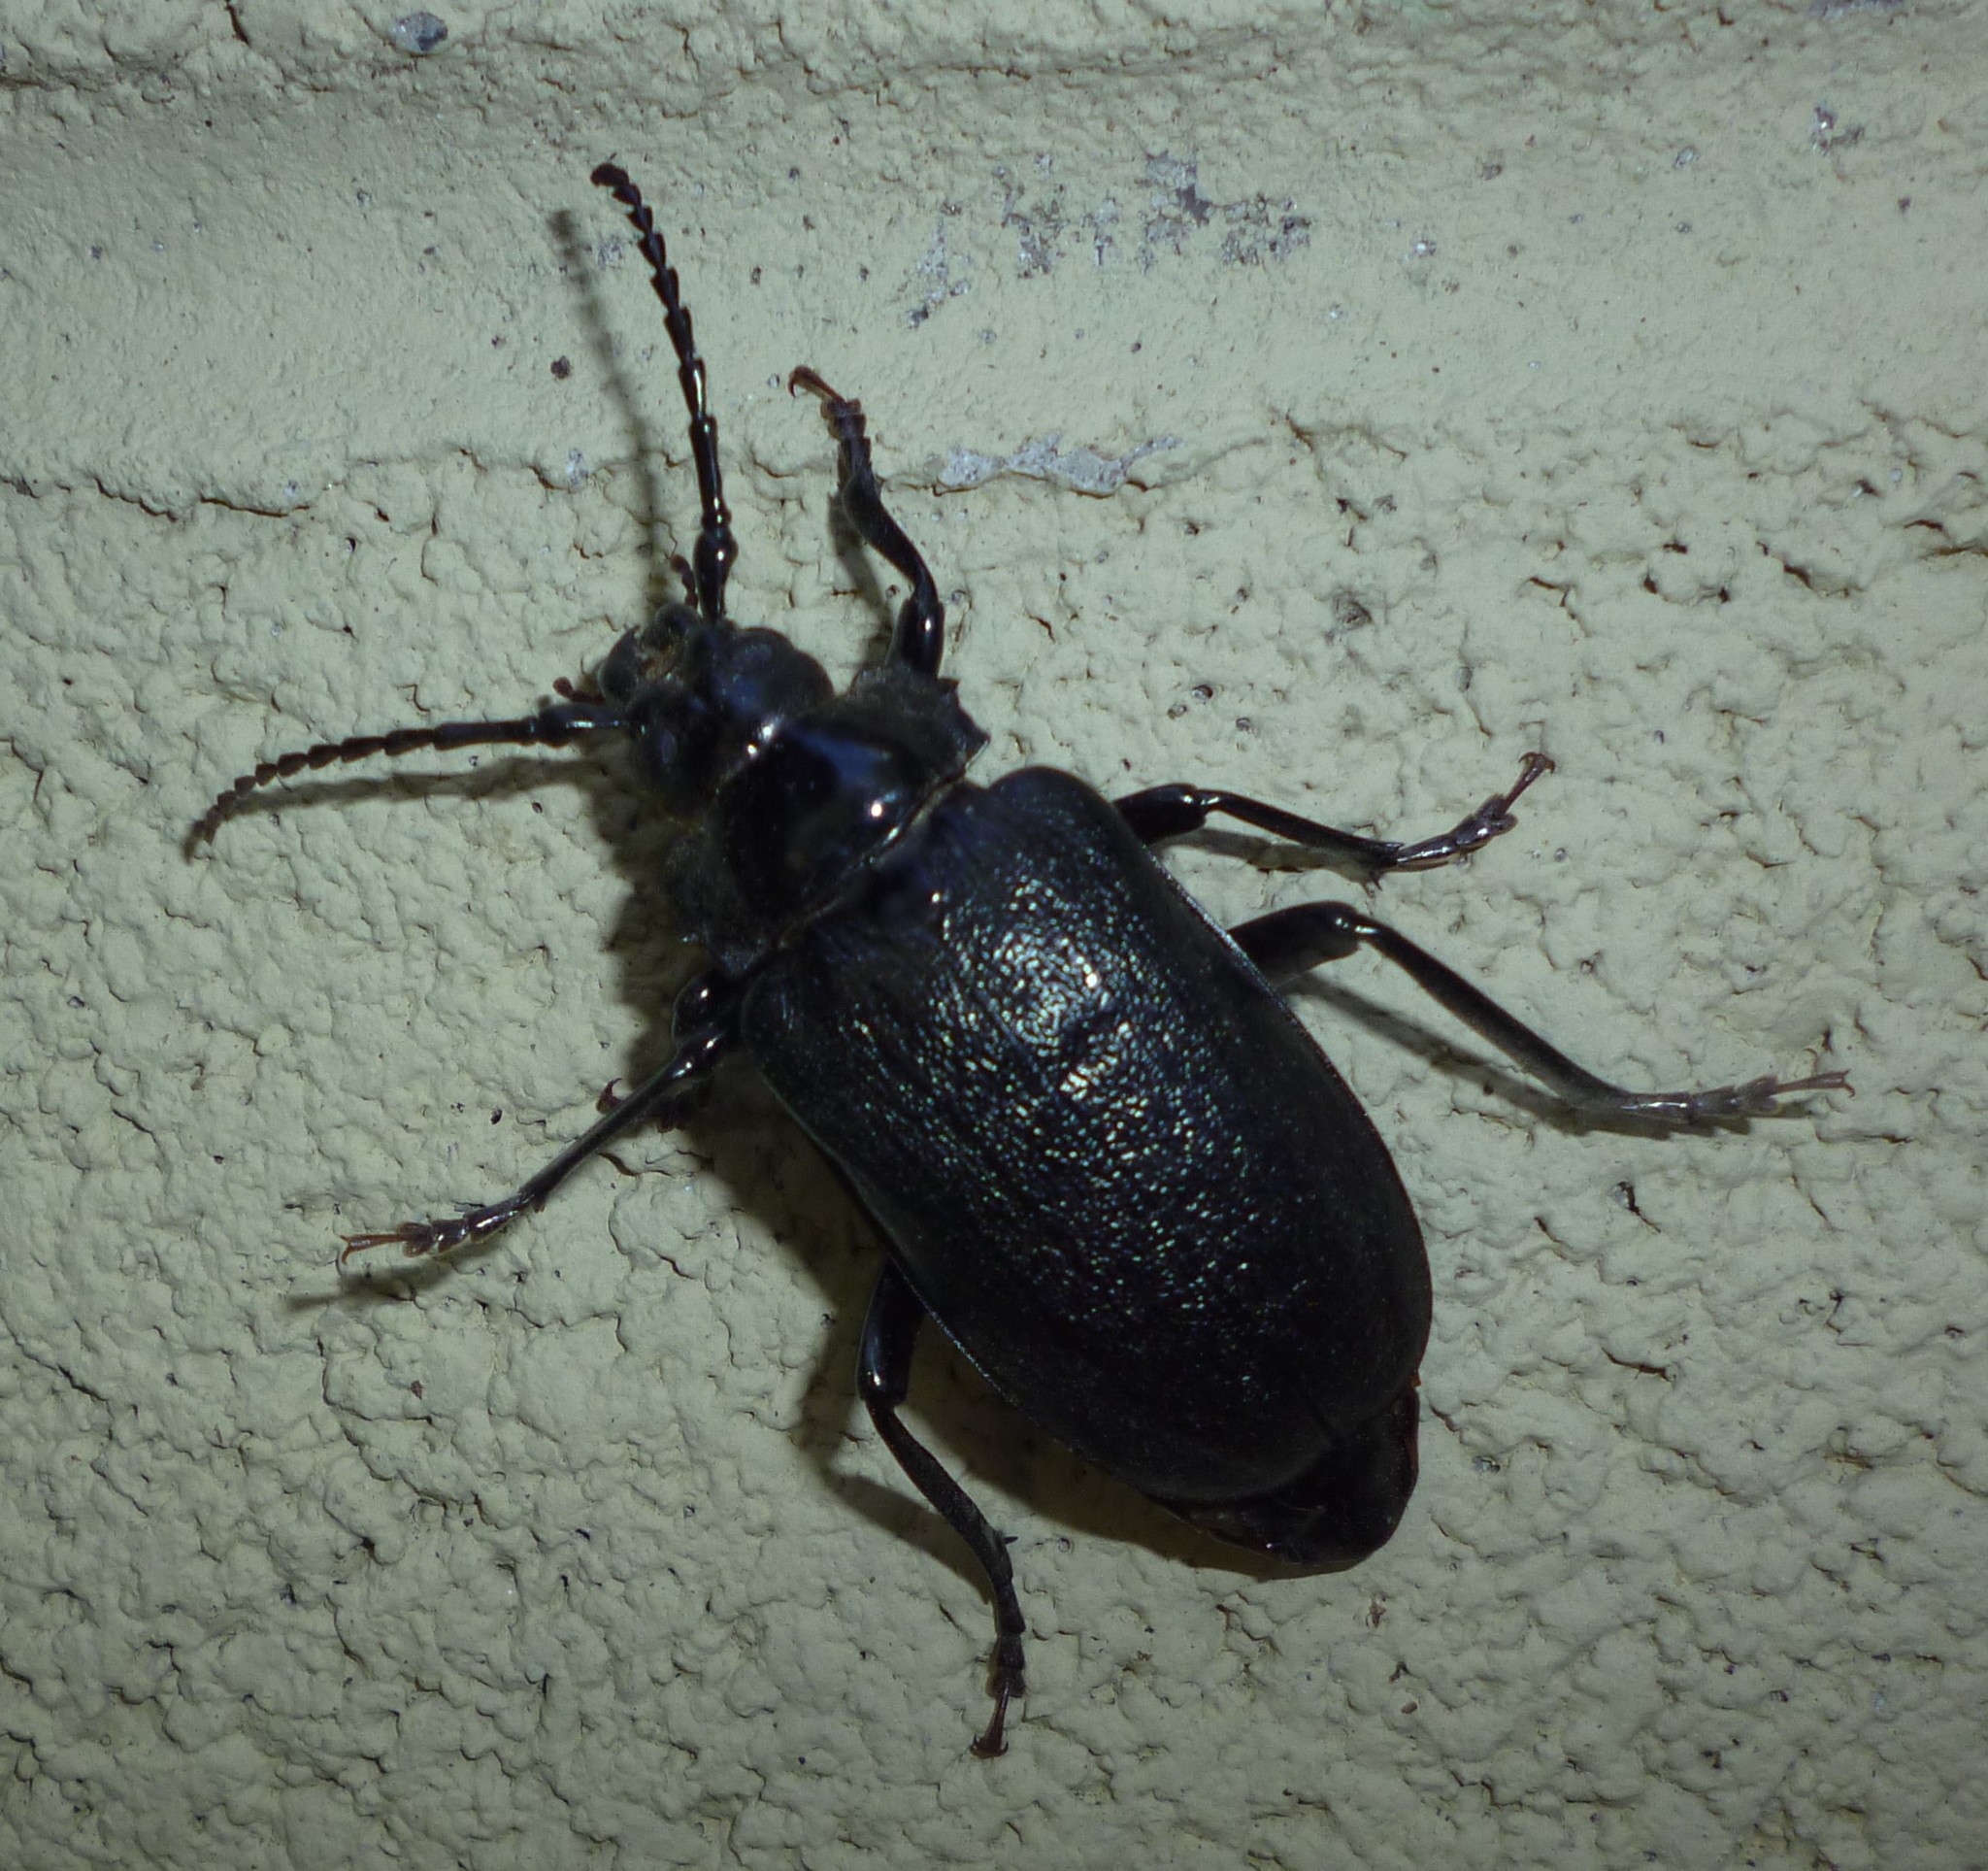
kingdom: Animalia
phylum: Arthropoda
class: Insecta
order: Coleoptera
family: Cerambycidae
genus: Prionus
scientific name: Prionus laticollis
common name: Broad necked prionus
